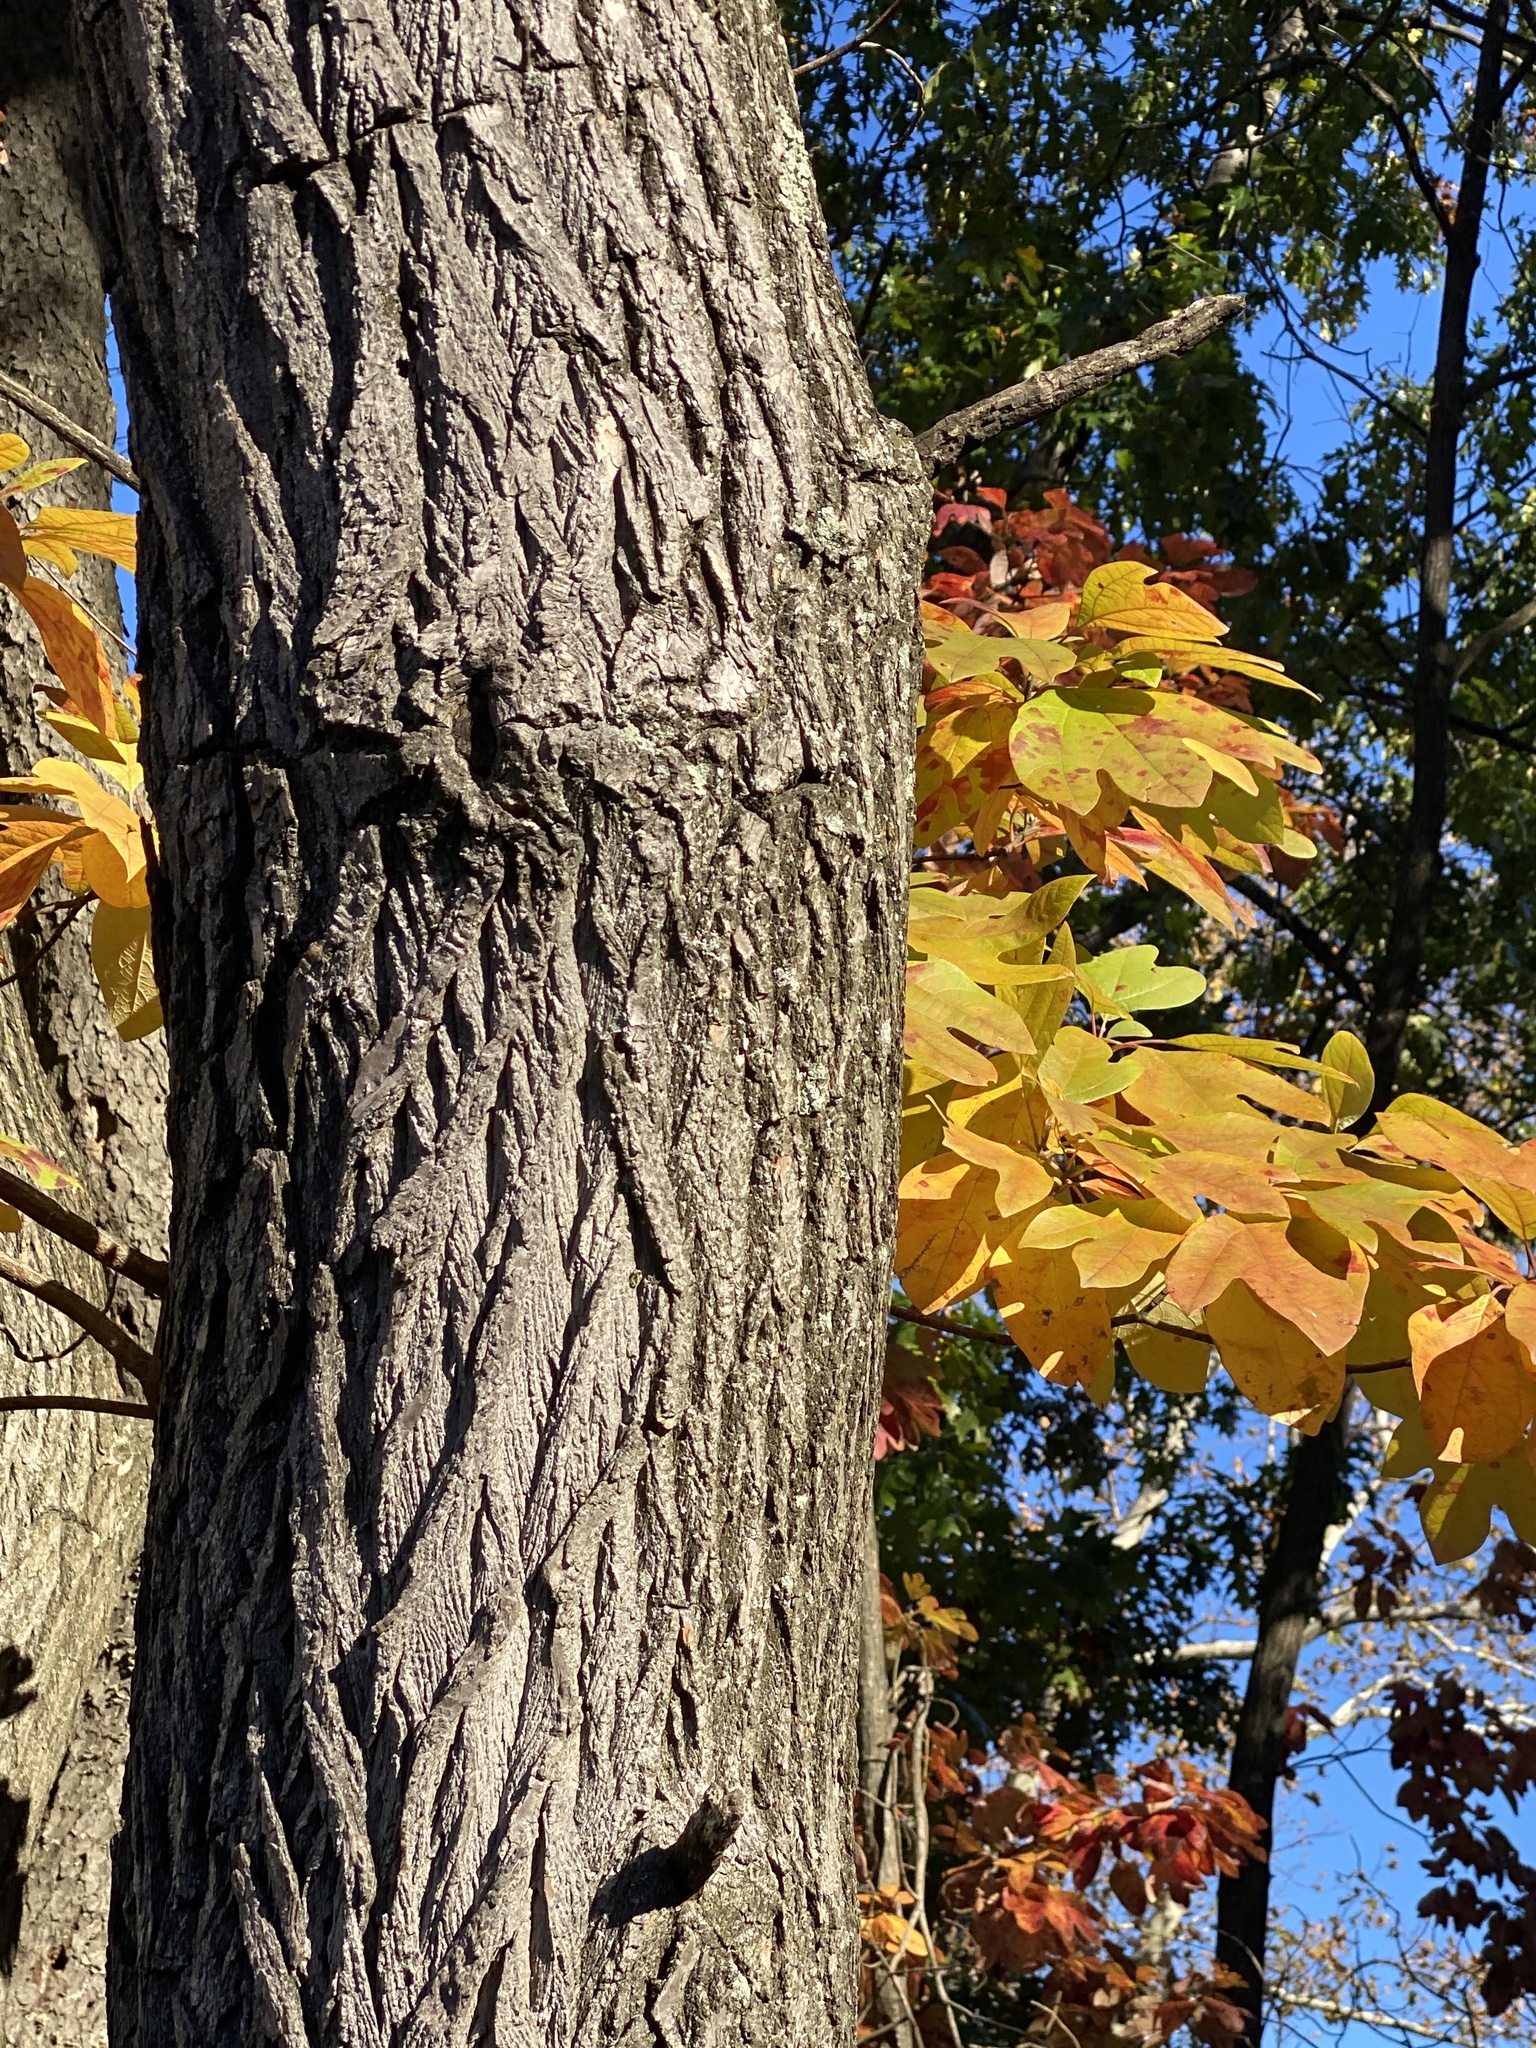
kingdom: Plantae
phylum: Tracheophyta
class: Magnoliopsida
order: Laurales
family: Lauraceae
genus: Sassafras
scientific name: Sassafras albidum
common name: Sassafras
